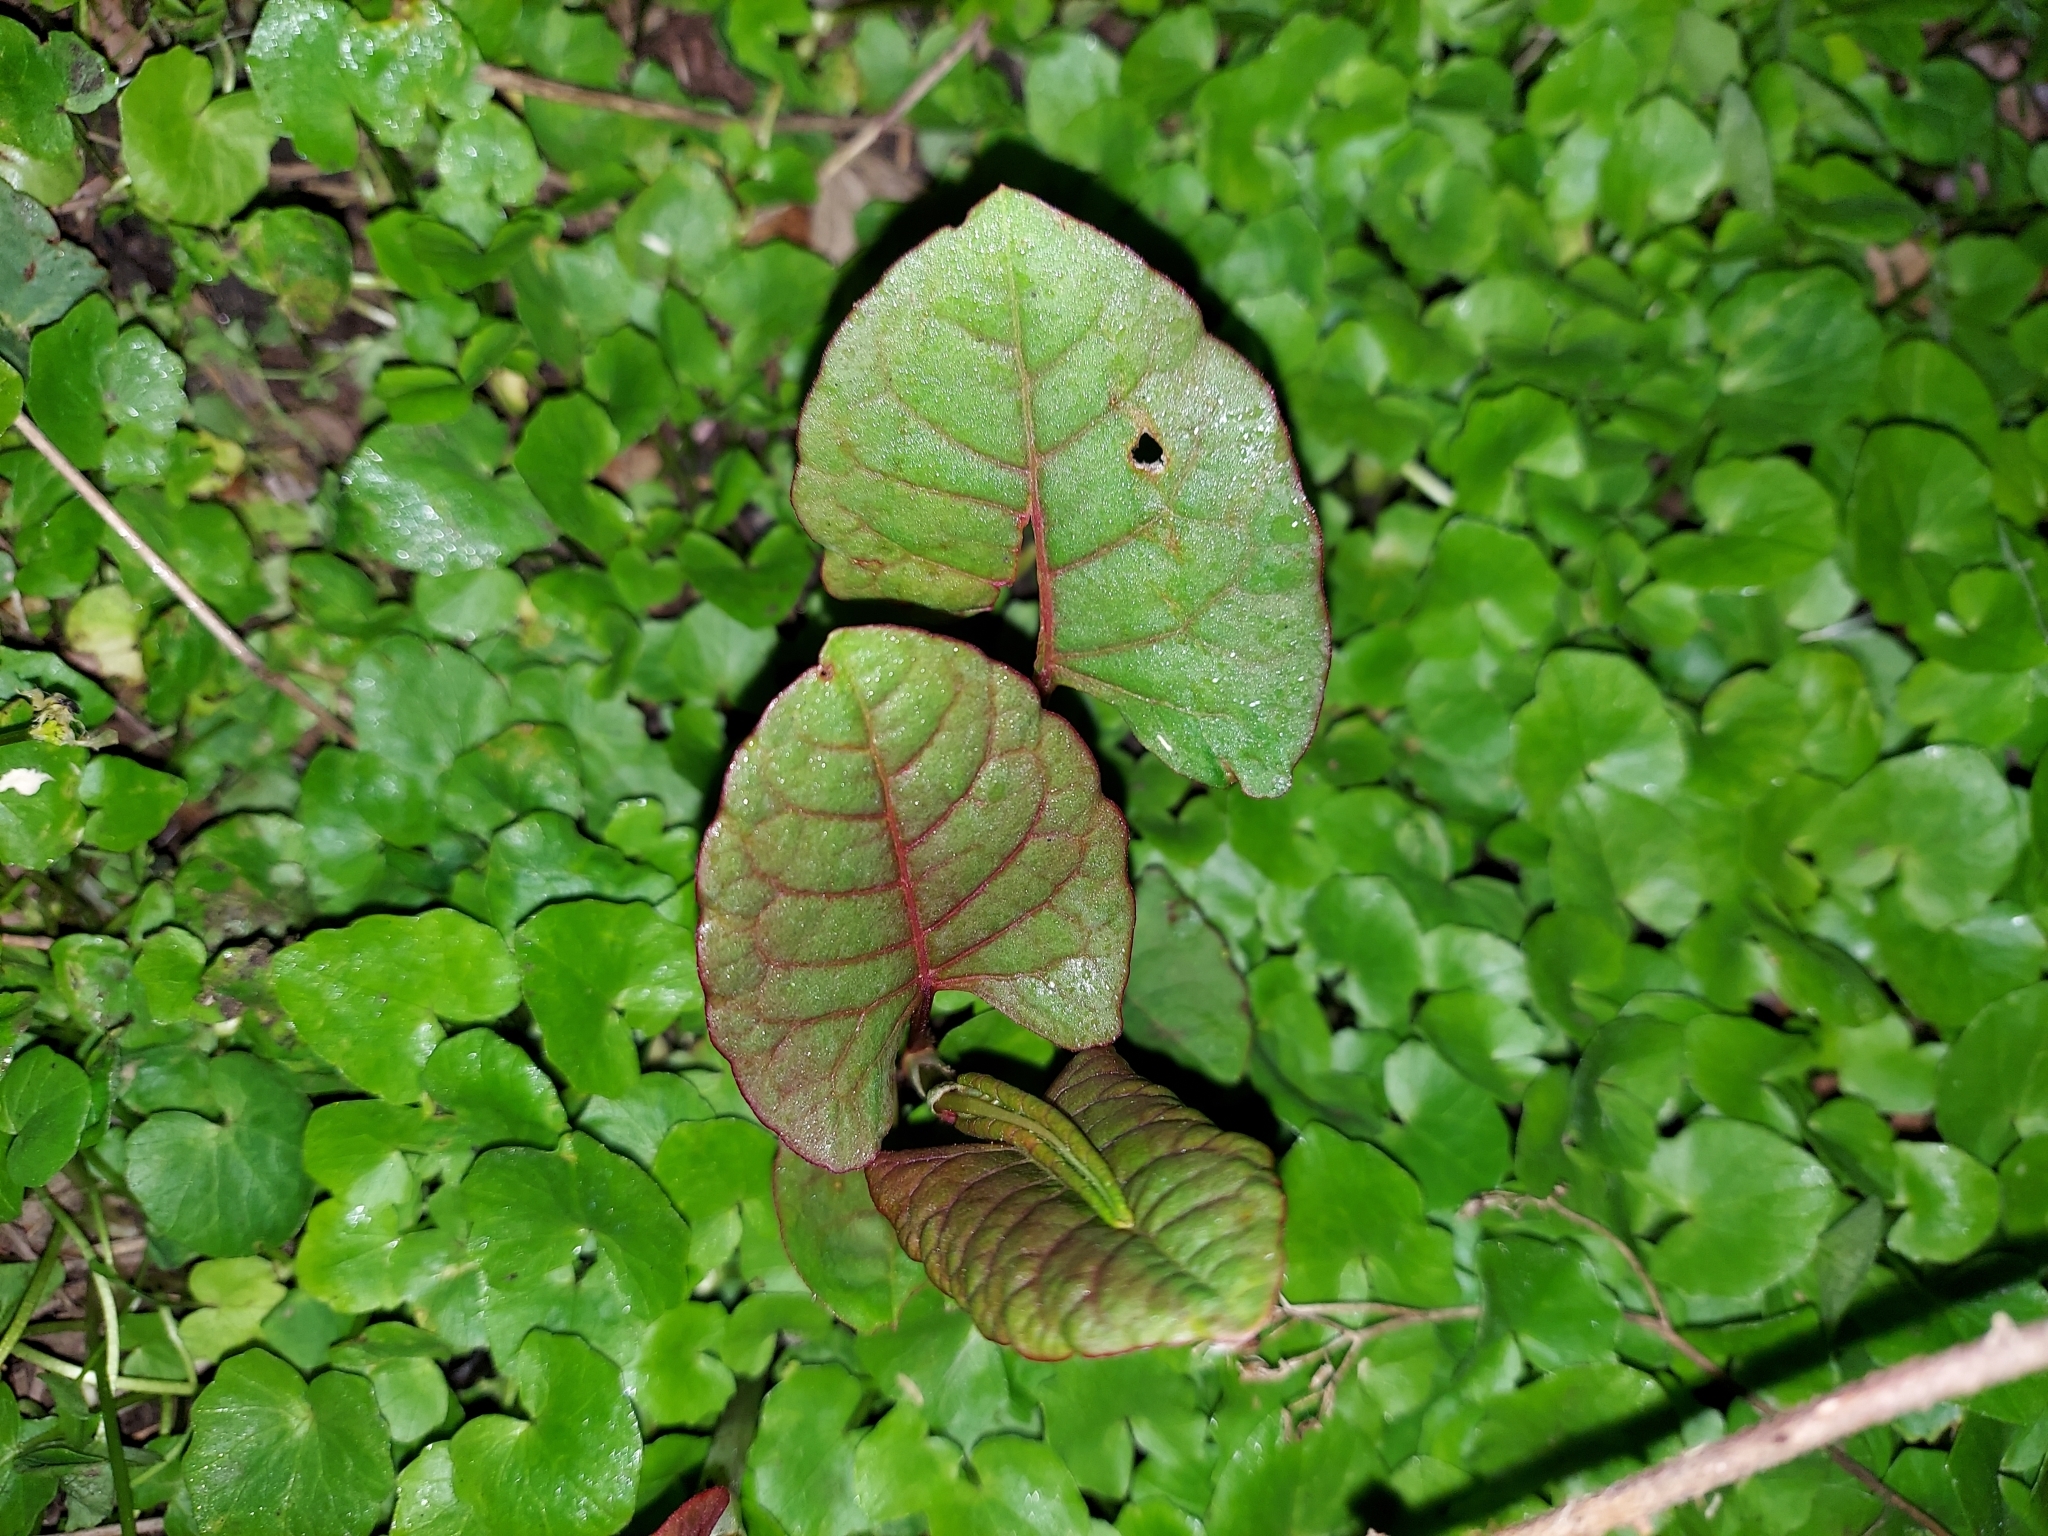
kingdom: Plantae
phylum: Tracheophyta
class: Magnoliopsida
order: Caryophyllales
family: Polygonaceae
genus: Reynoutria
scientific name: Reynoutria japonica
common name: Japanese knotweed
